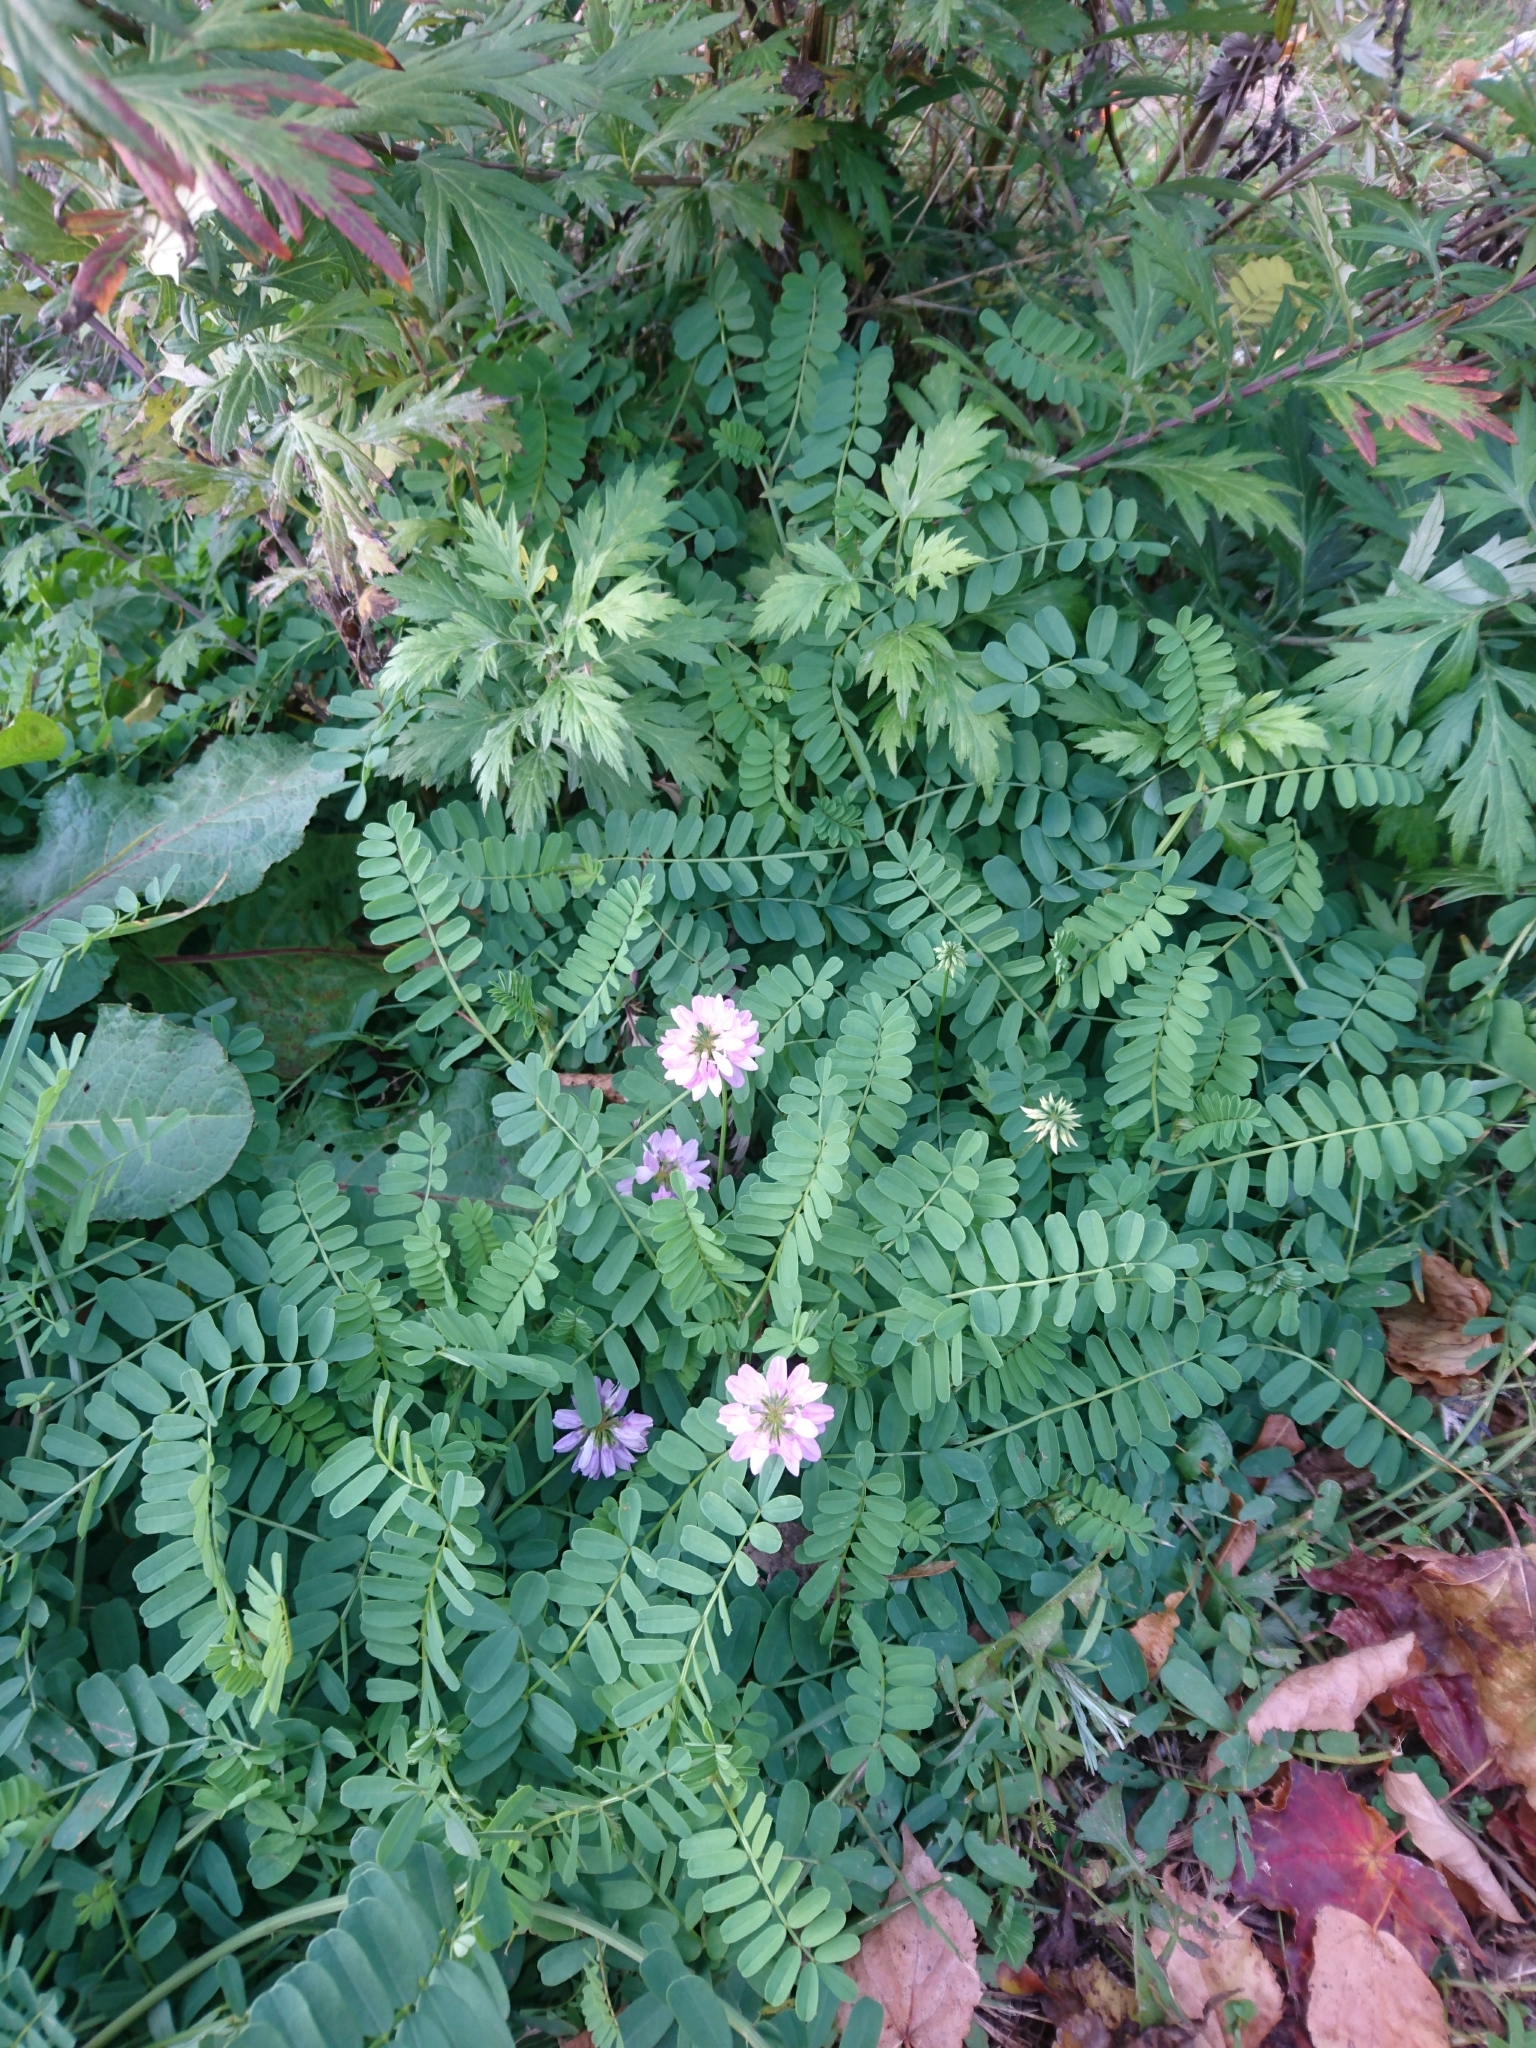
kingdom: Plantae
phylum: Tracheophyta
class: Magnoliopsida
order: Fabales
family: Fabaceae
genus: Coronilla
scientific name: Coronilla varia
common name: Crownvetch
